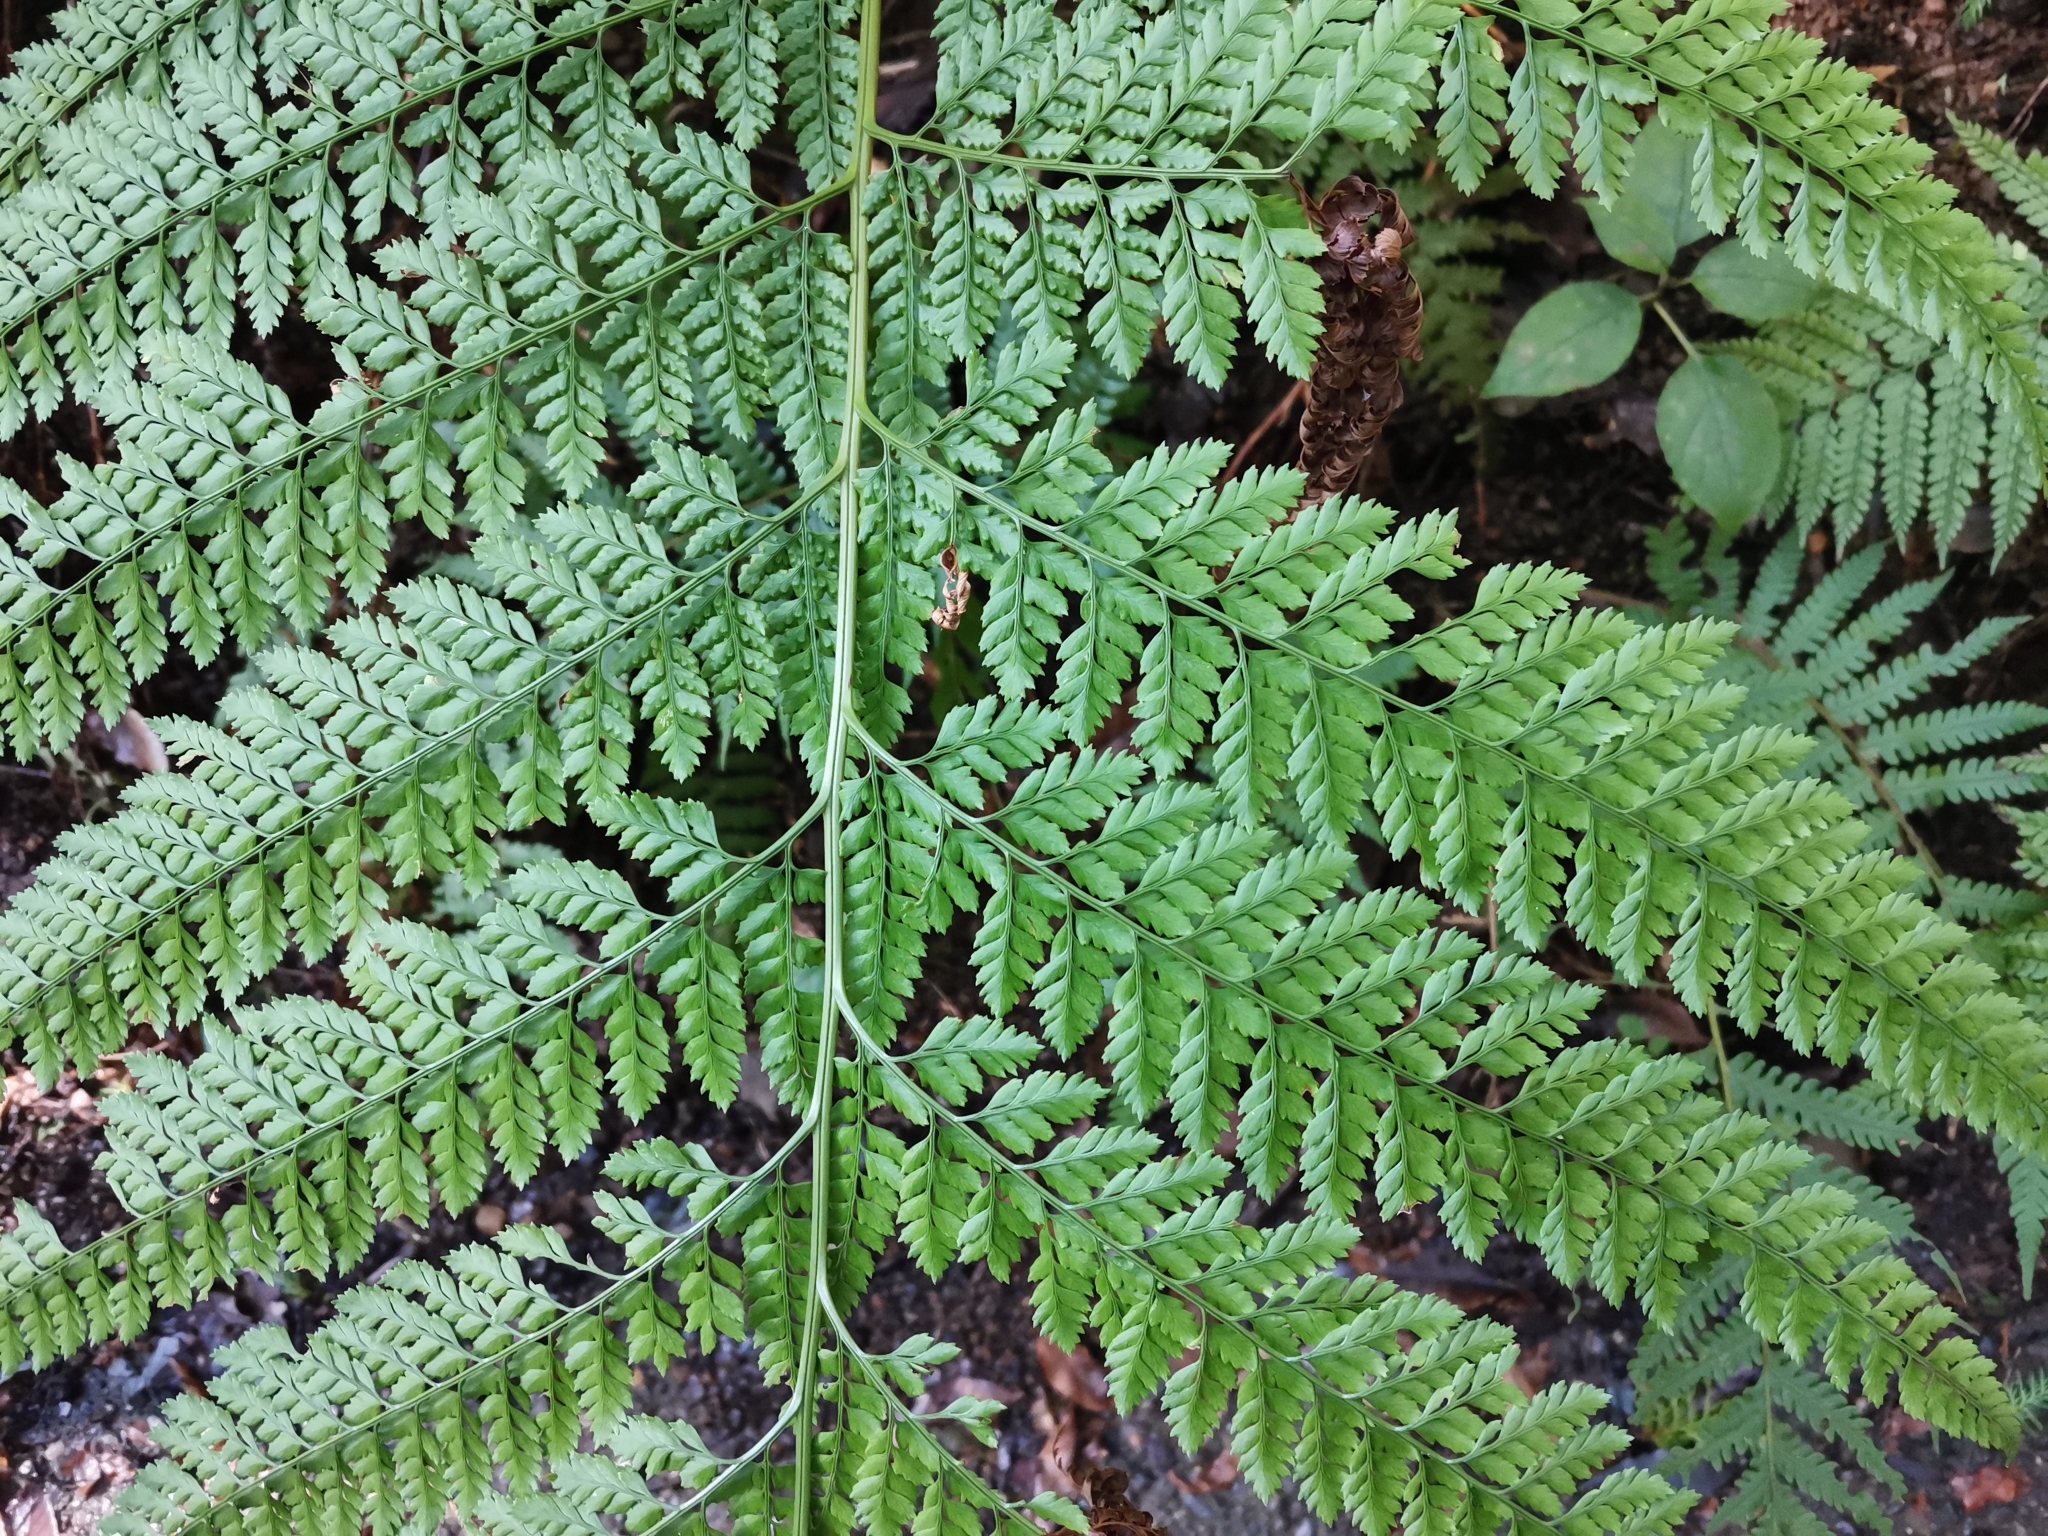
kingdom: Plantae
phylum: Tracheophyta
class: Polypodiopsida
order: Polypodiales
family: Dryopteridaceae
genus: Arachniodes
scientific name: Arachniodes standishii
